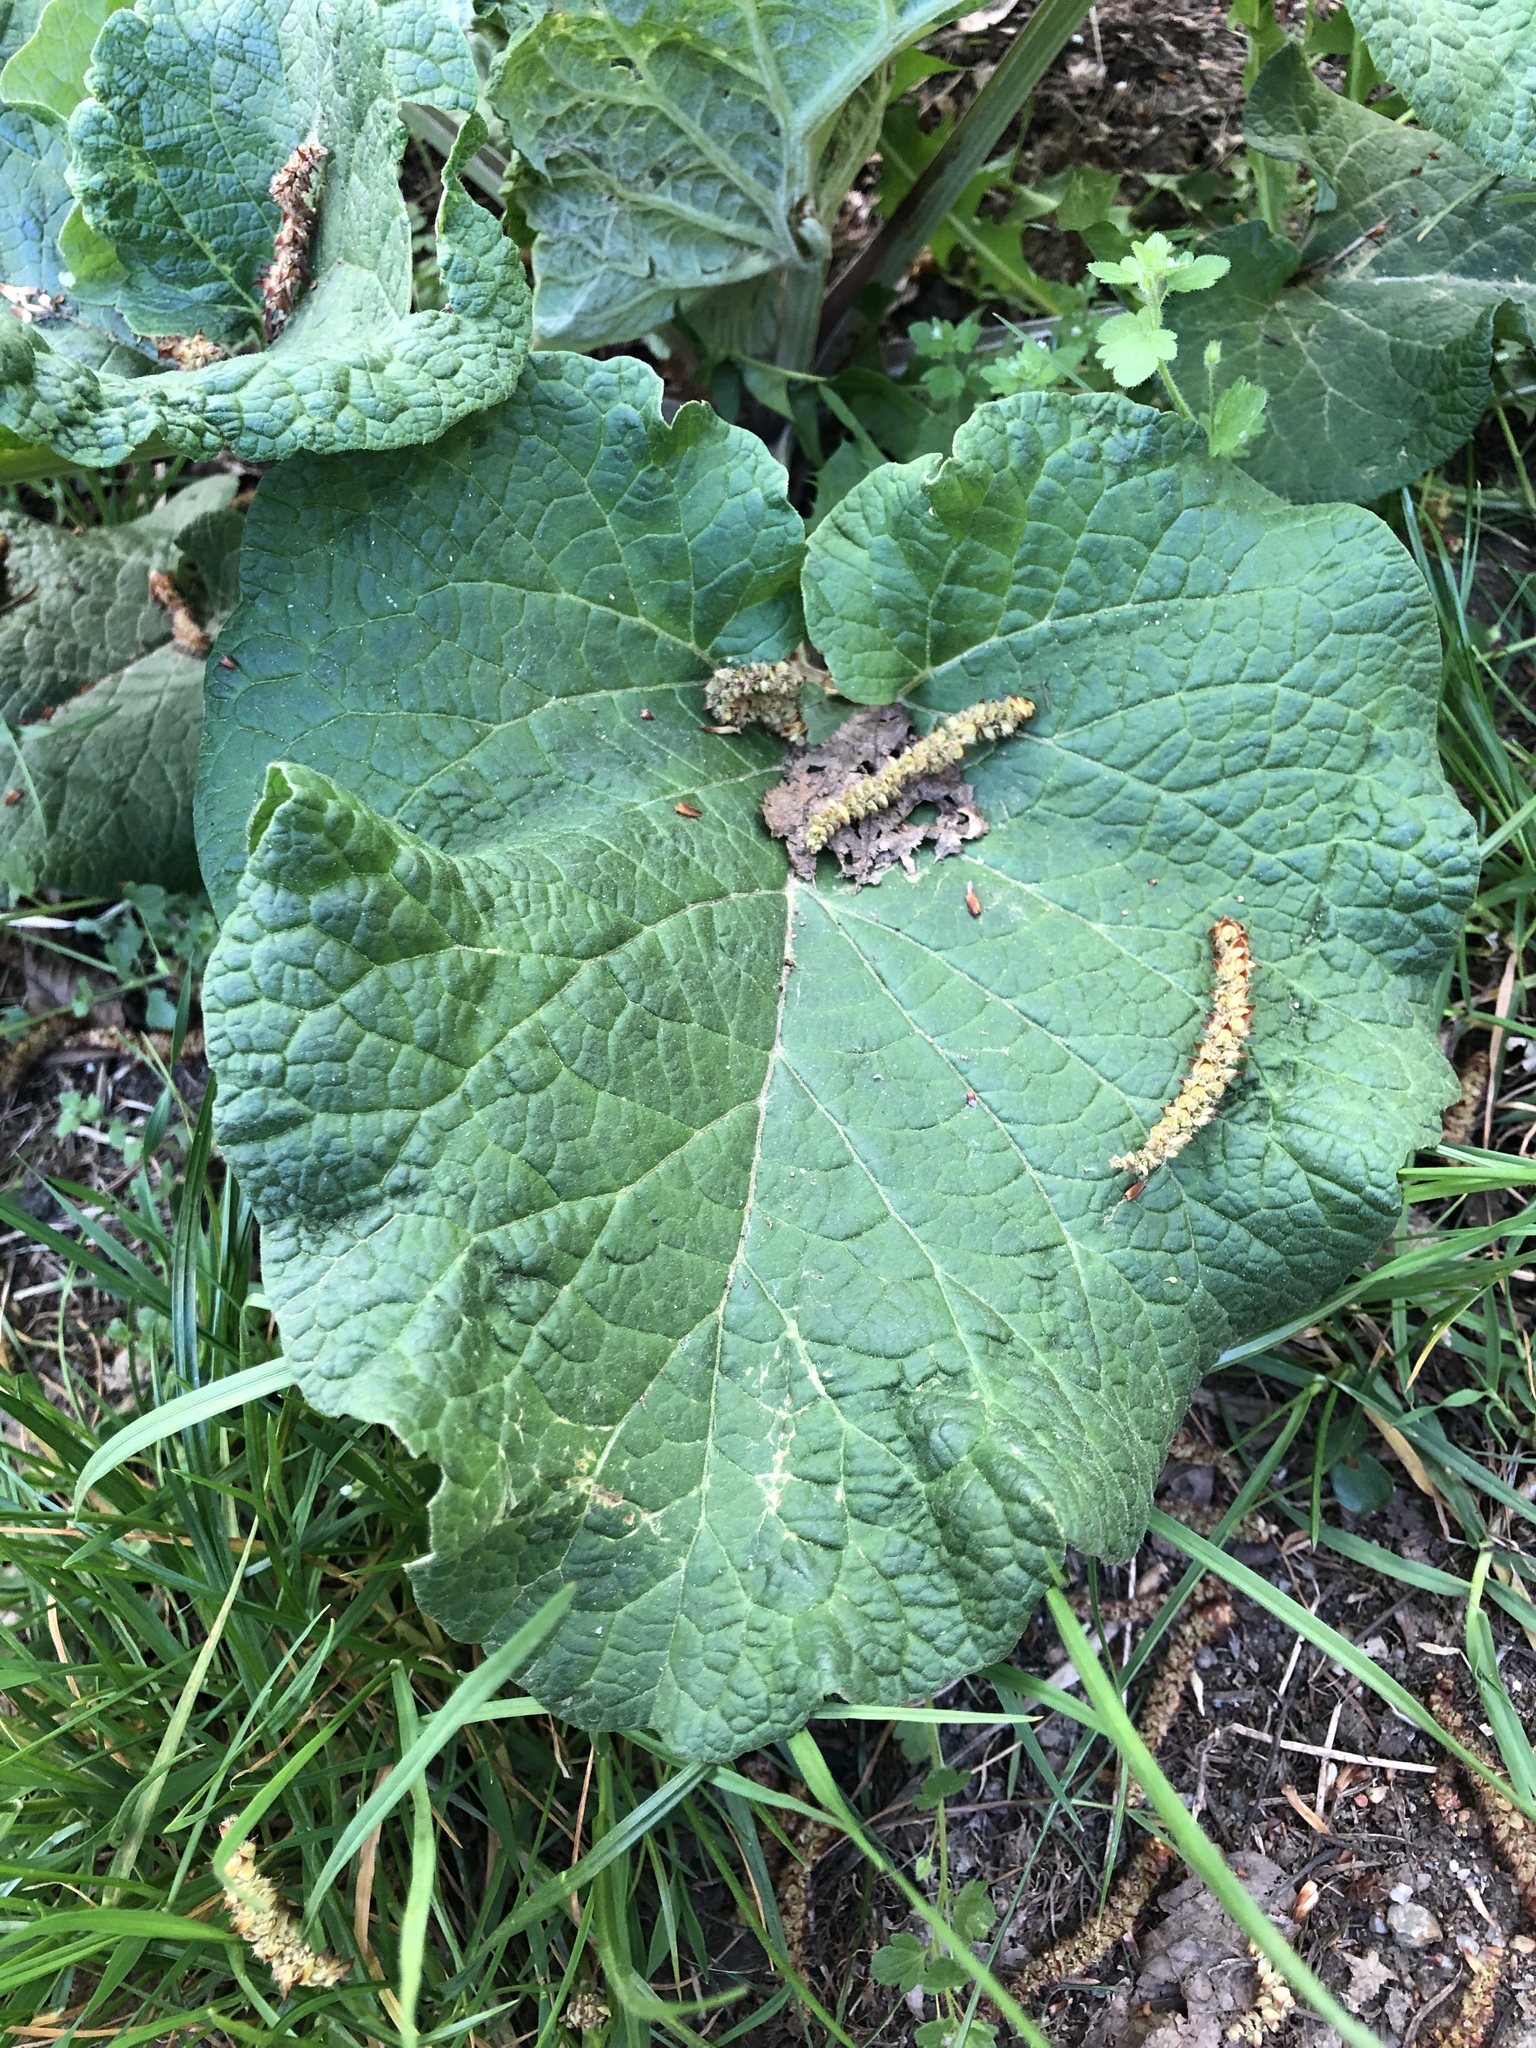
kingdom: Plantae
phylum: Tracheophyta
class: Magnoliopsida
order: Asterales
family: Asteraceae
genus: Arctium
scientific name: Arctium lappa
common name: Greater burdock
